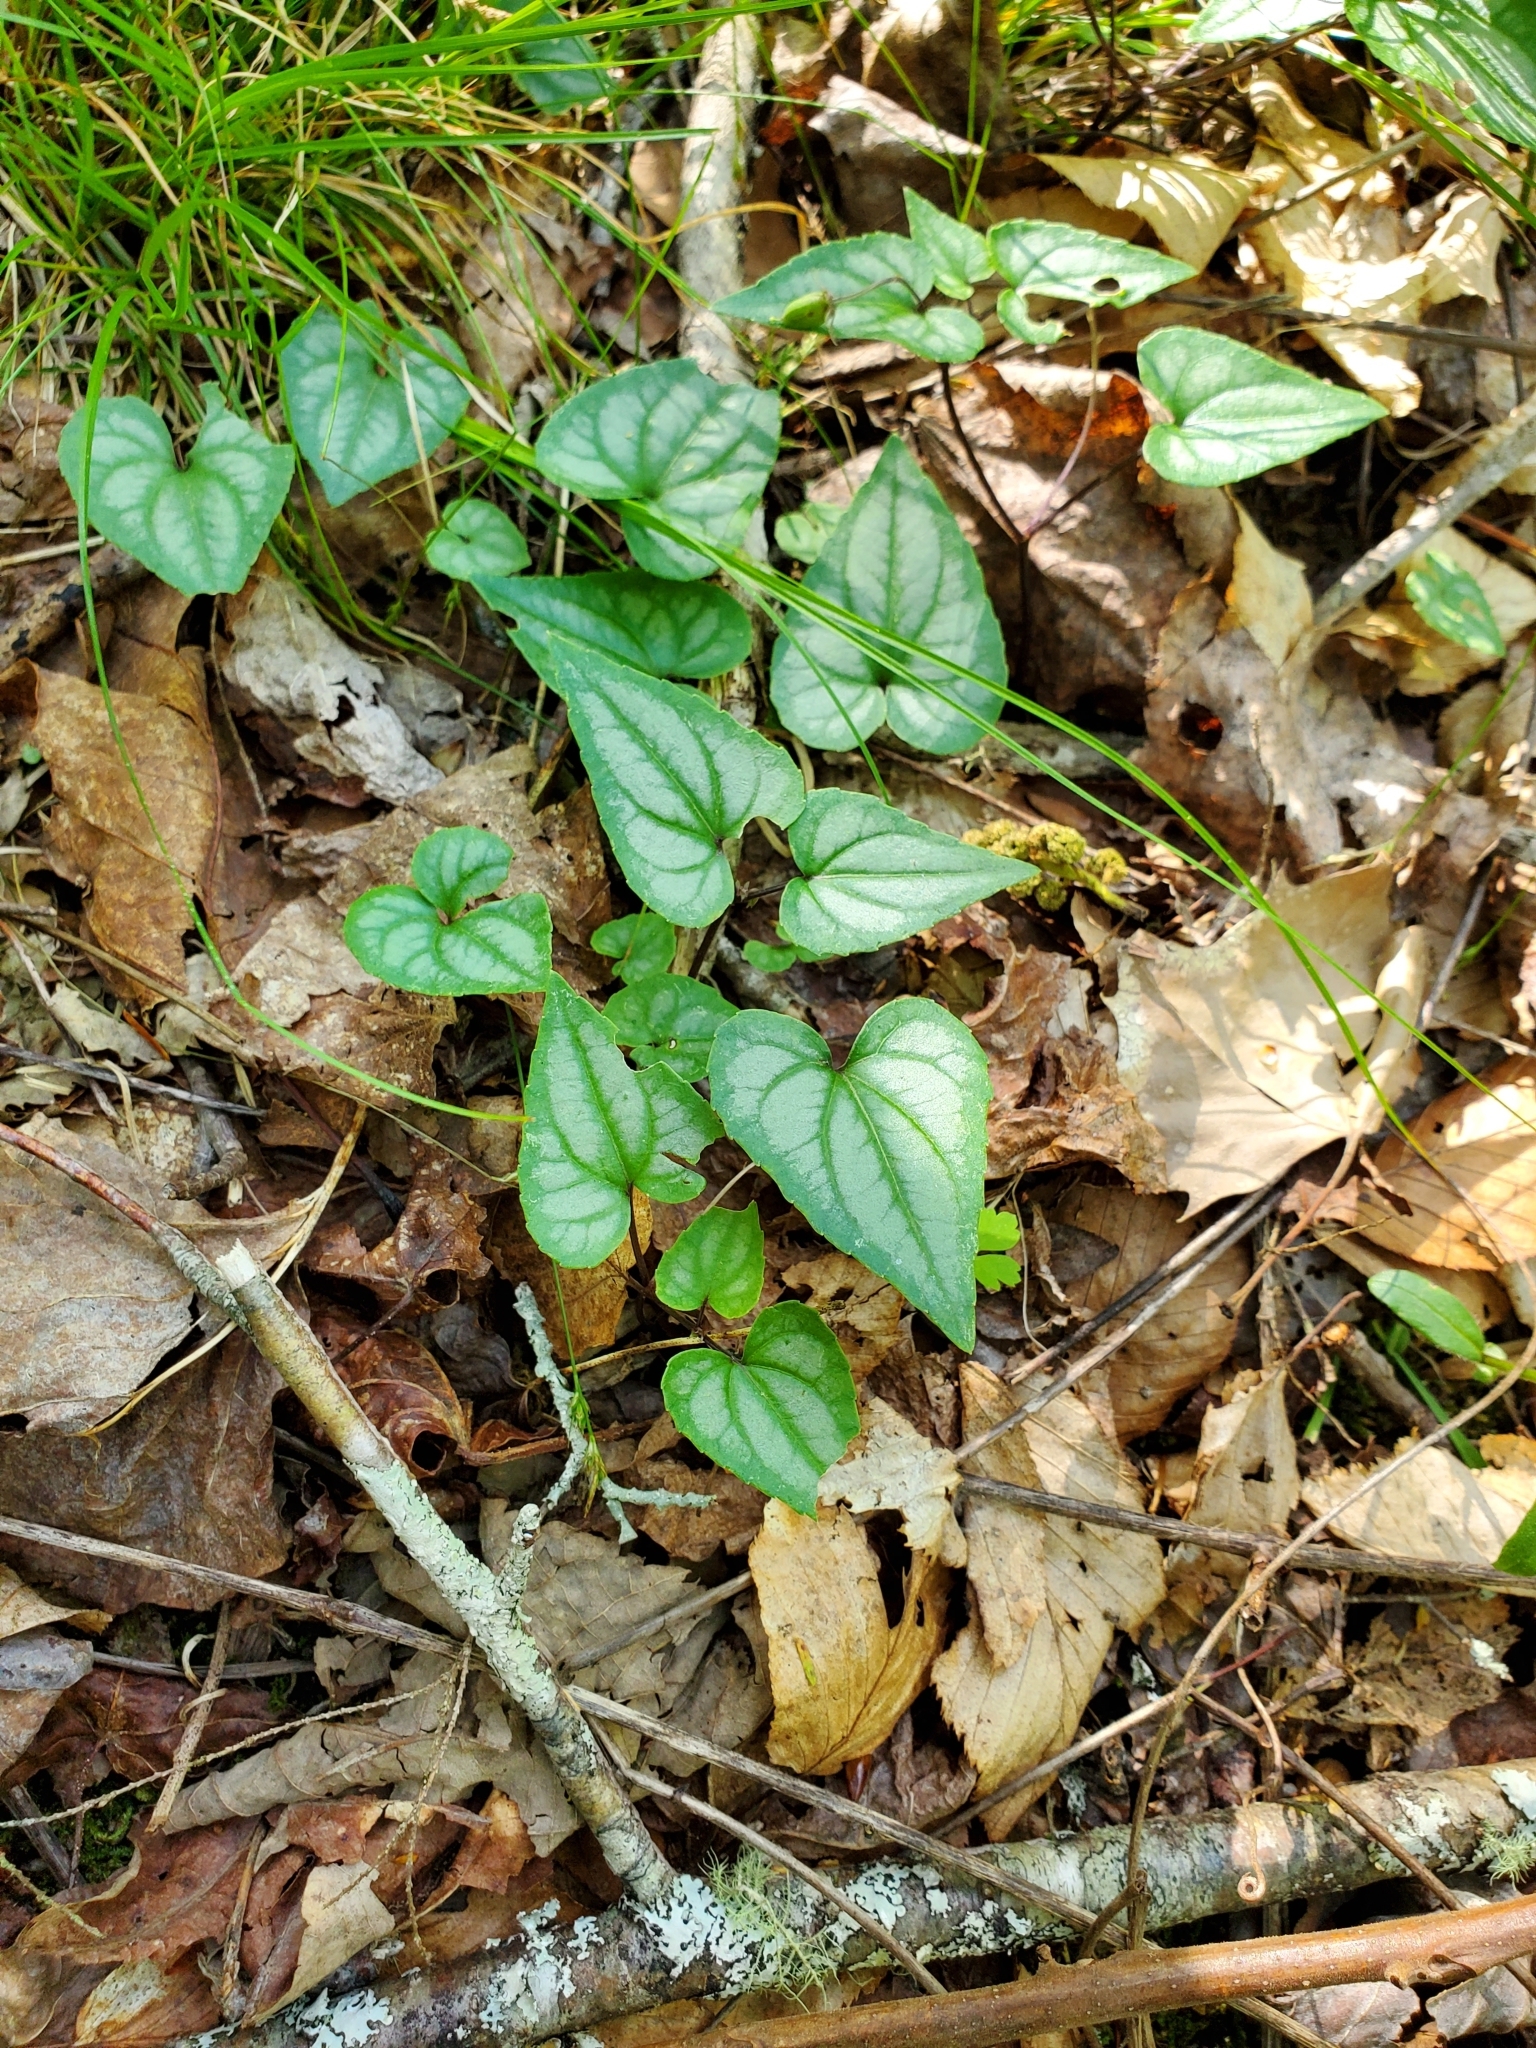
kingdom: Plantae
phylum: Tracheophyta
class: Magnoliopsida
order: Malpighiales
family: Violaceae
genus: Viola
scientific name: Viola hastata
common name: Spear-leaf violet
